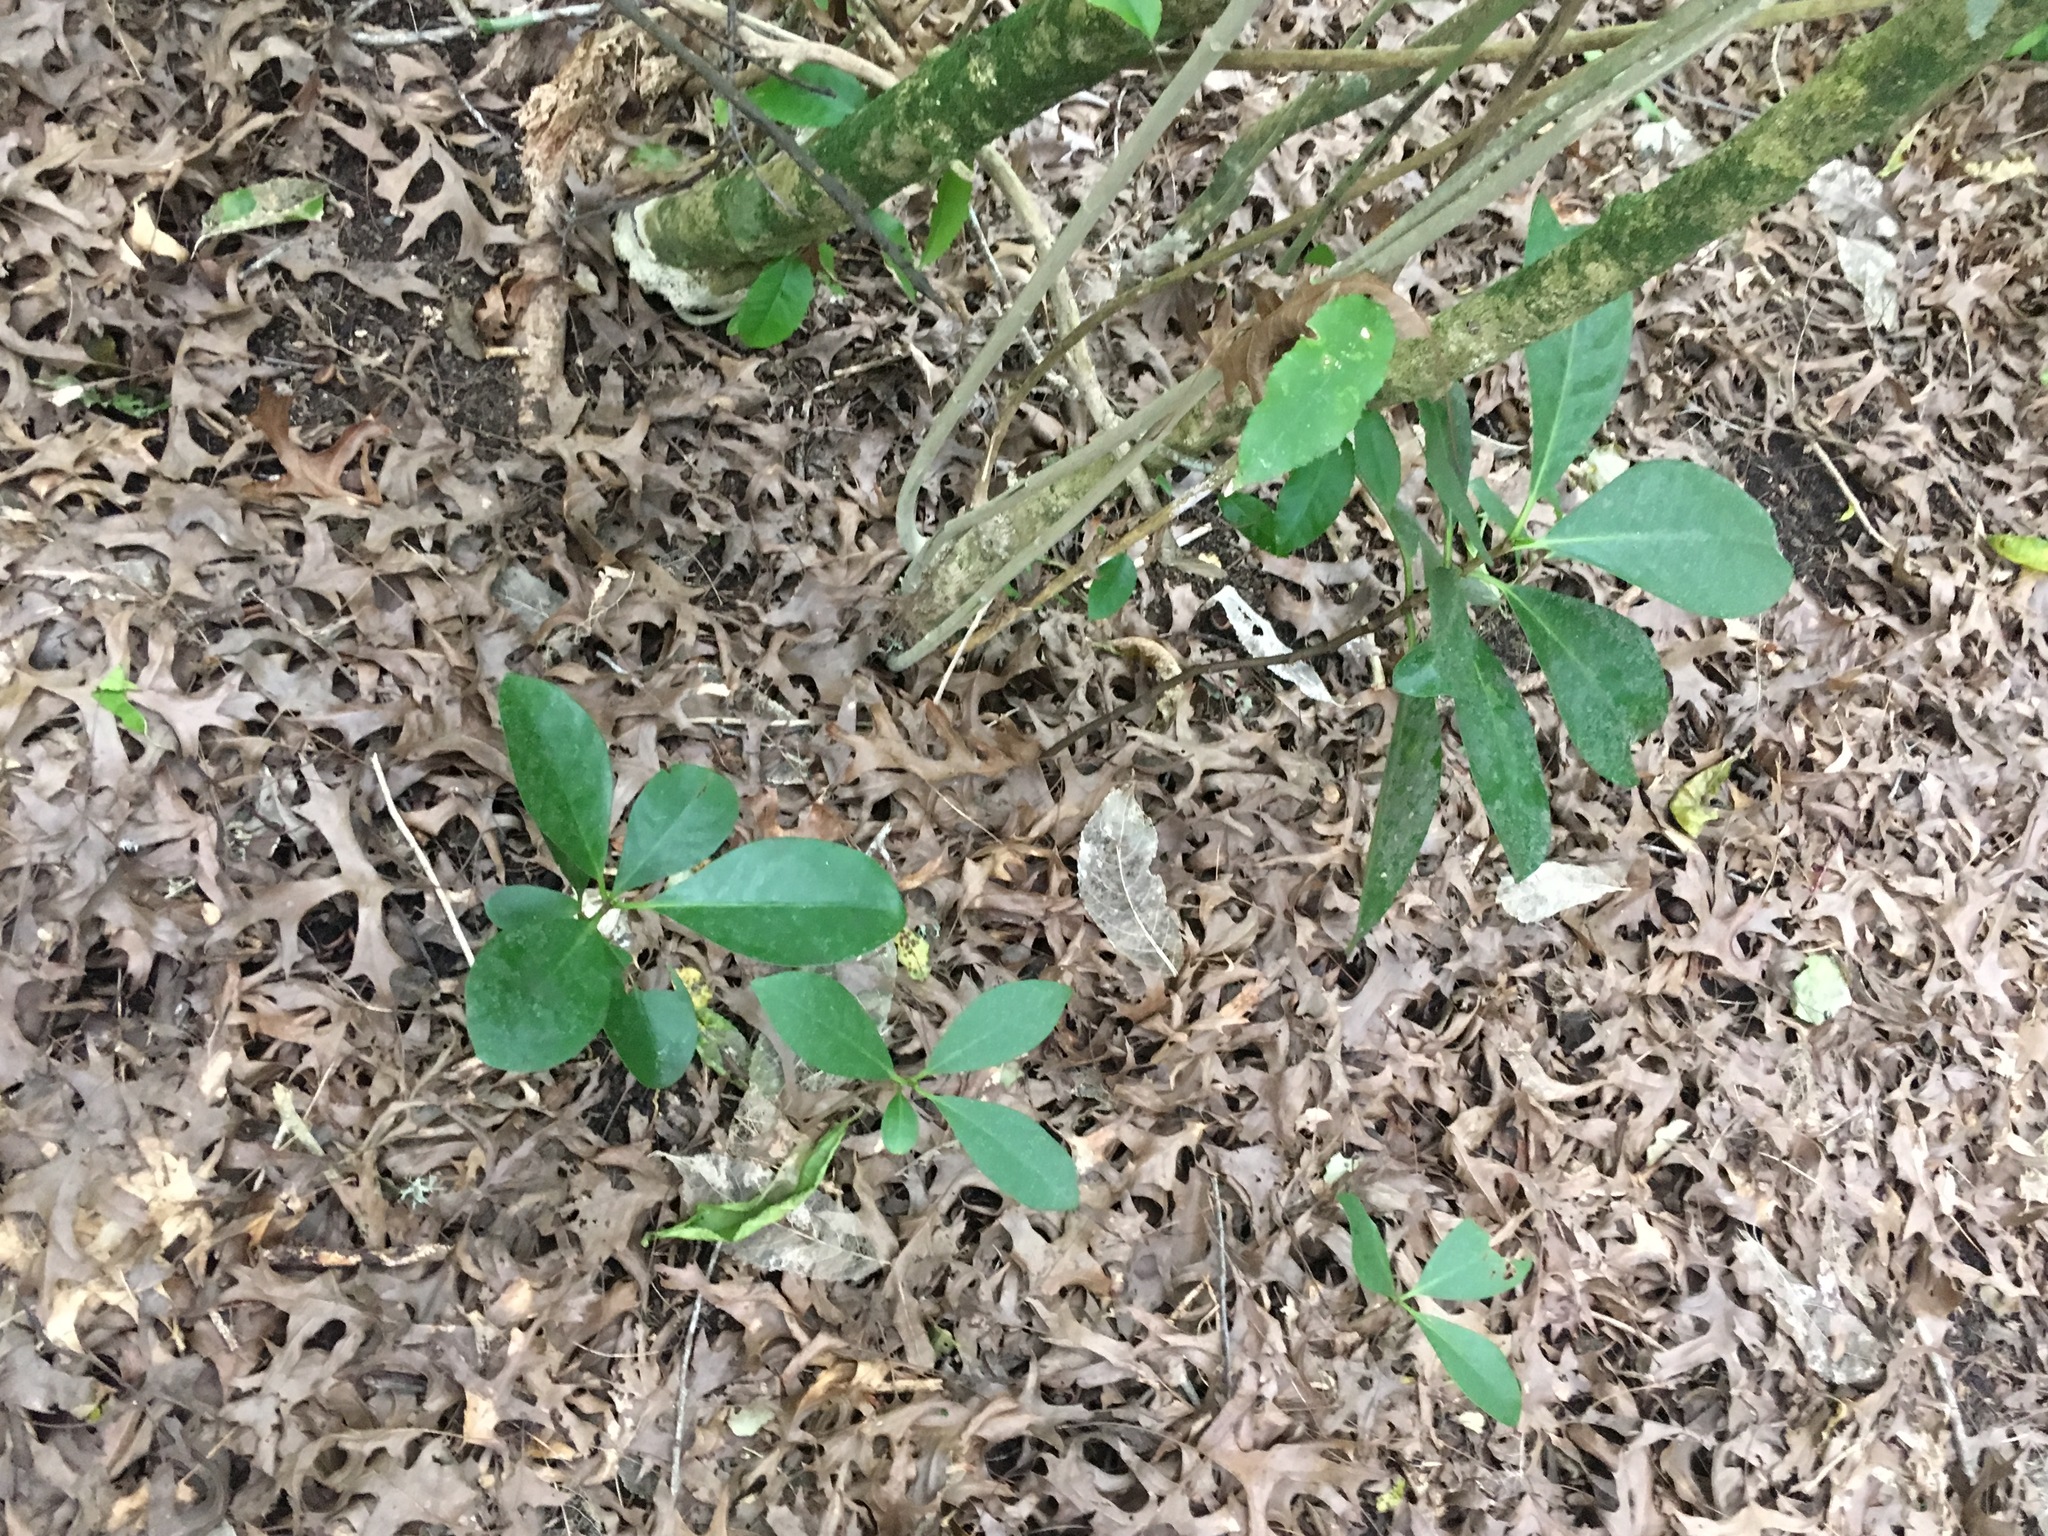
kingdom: Plantae
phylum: Tracheophyta
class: Magnoliopsida
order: Cucurbitales
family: Corynocarpaceae
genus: Corynocarpus
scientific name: Corynocarpus laevigatus
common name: New zealand laurel
